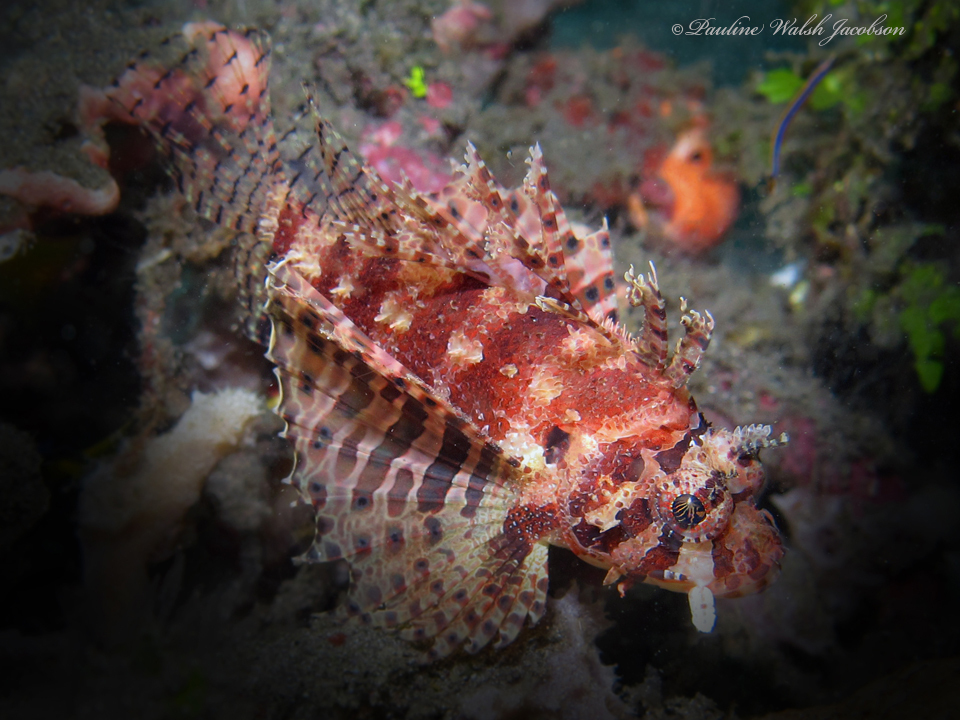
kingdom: Animalia
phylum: Chordata
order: Scorpaeniformes
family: Scorpaenidae
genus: Dendrochirus
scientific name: Dendrochirus brachypterus
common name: Shortfin turkeyfish
